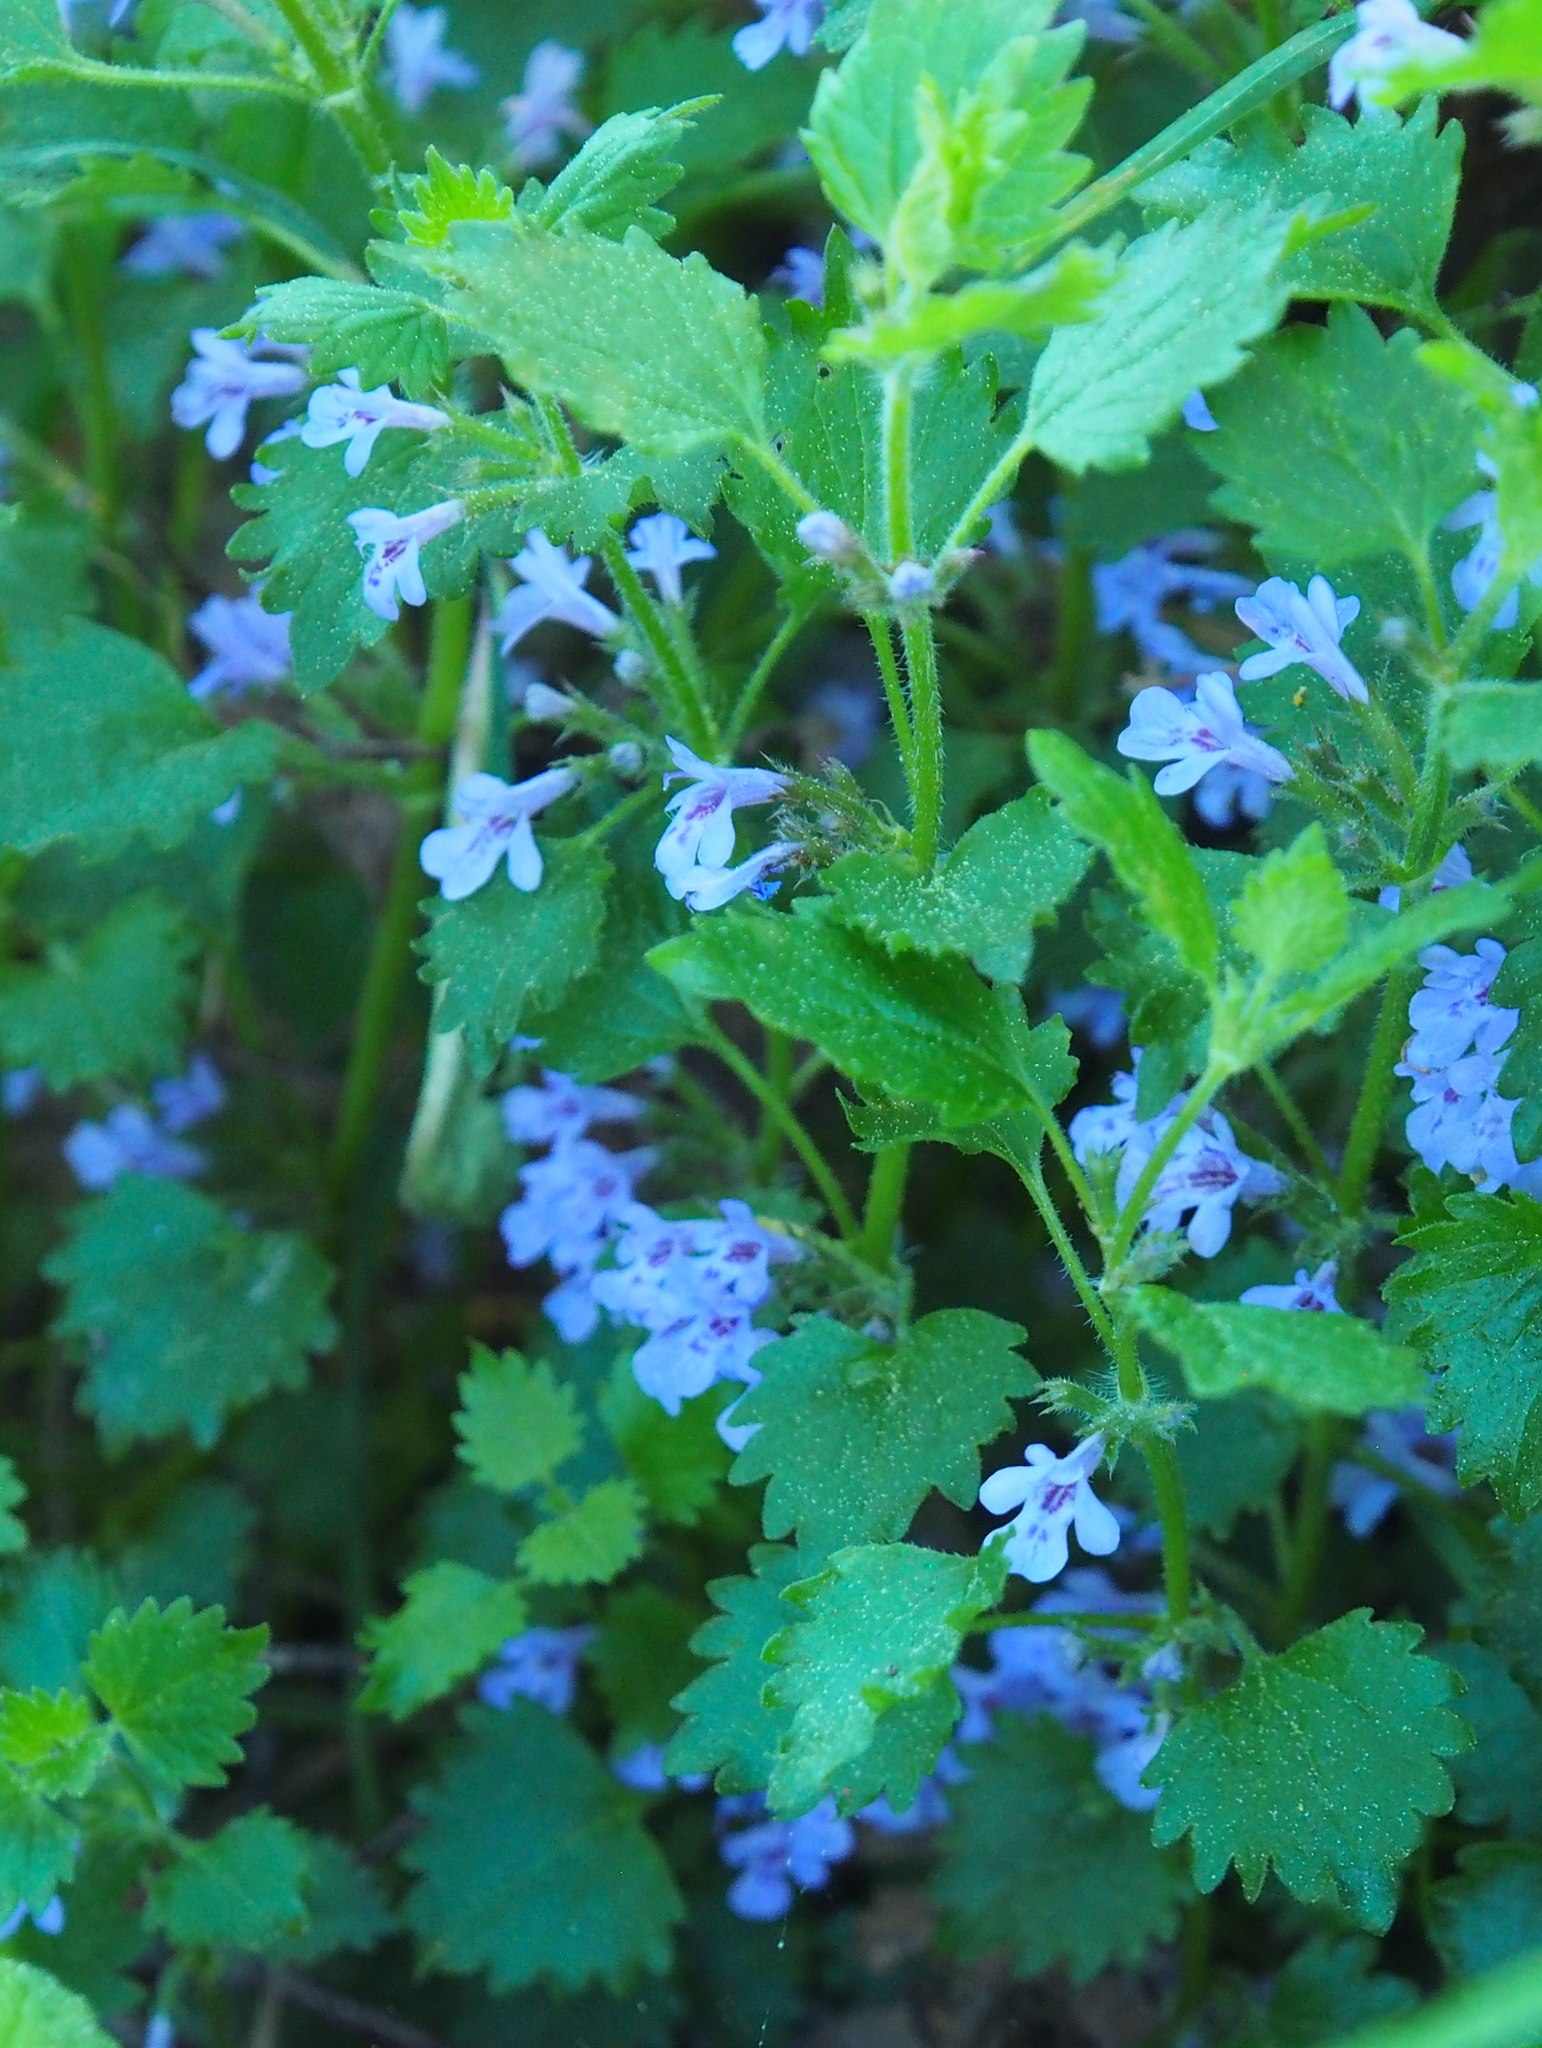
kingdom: Plantae
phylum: Tracheophyta
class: Magnoliopsida
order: Lamiales
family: Lamiaceae
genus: Glechoma
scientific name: Glechoma hederacea
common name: Ground ivy
